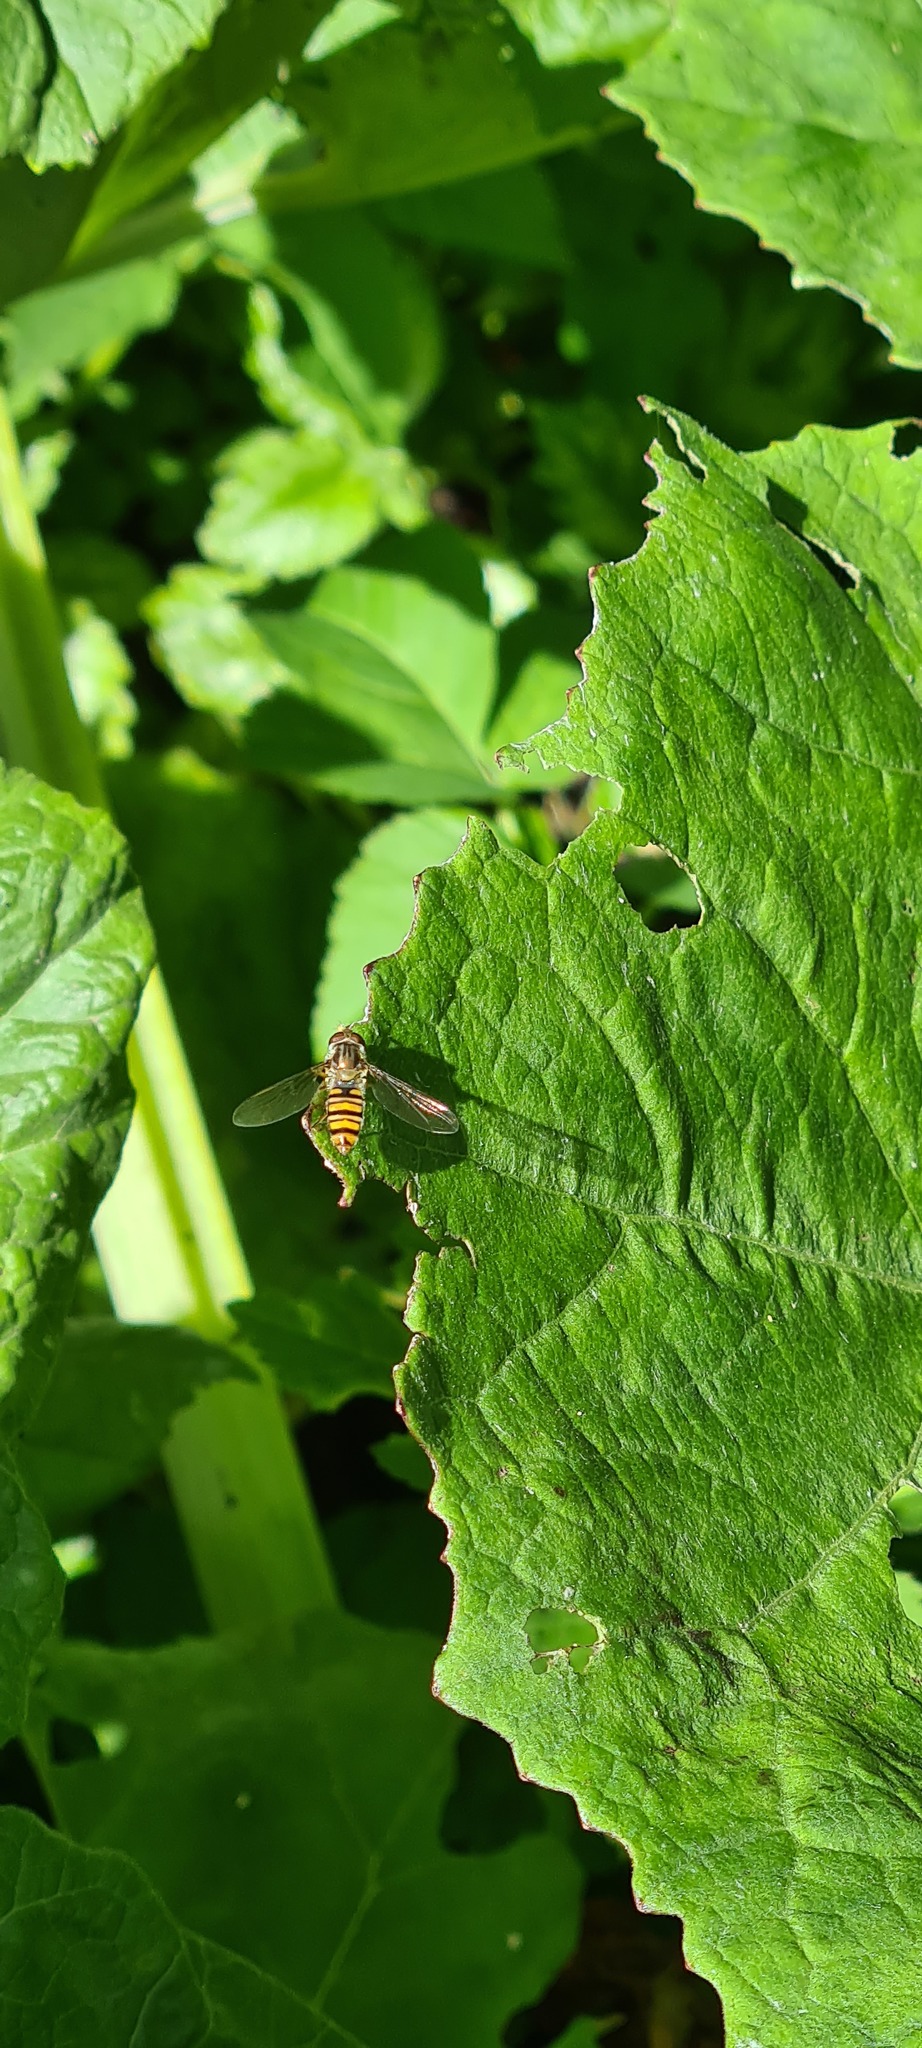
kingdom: Animalia
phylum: Arthropoda
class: Insecta
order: Diptera
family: Syrphidae
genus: Episyrphus
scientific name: Episyrphus balteatus
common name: Marmalade hoverfly
